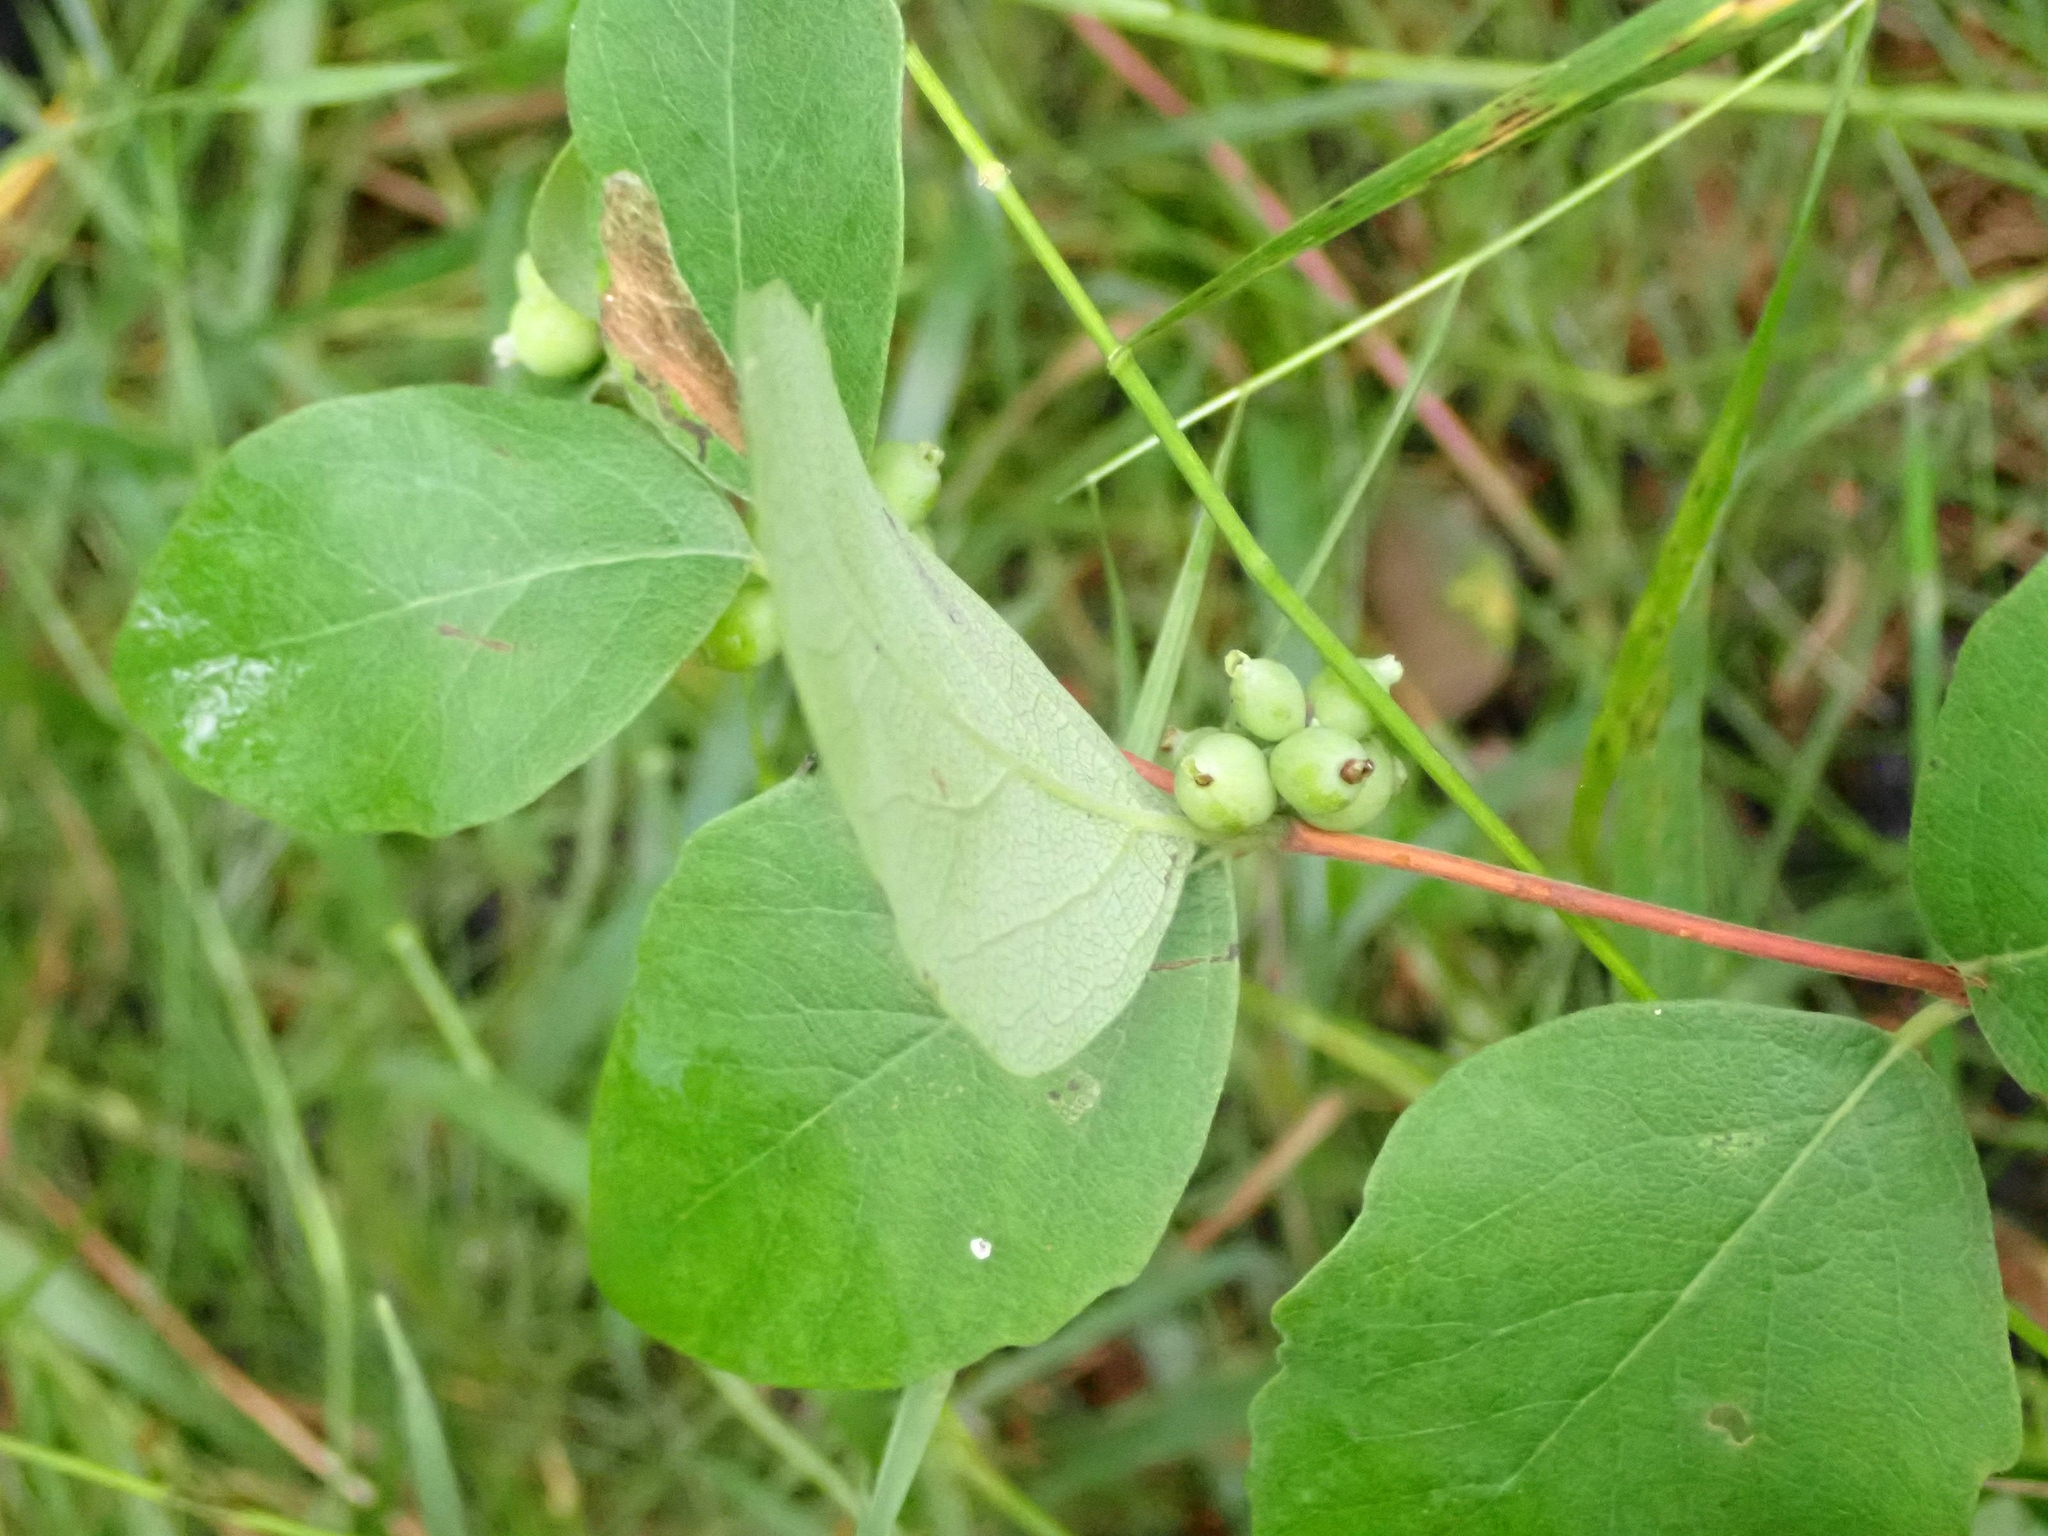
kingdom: Plantae
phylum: Tracheophyta
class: Magnoliopsida
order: Dipsacales
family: Caprifoliaceae
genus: Symphoricarpos
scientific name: Symphoricarpos occidentalis
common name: Wolfberry
